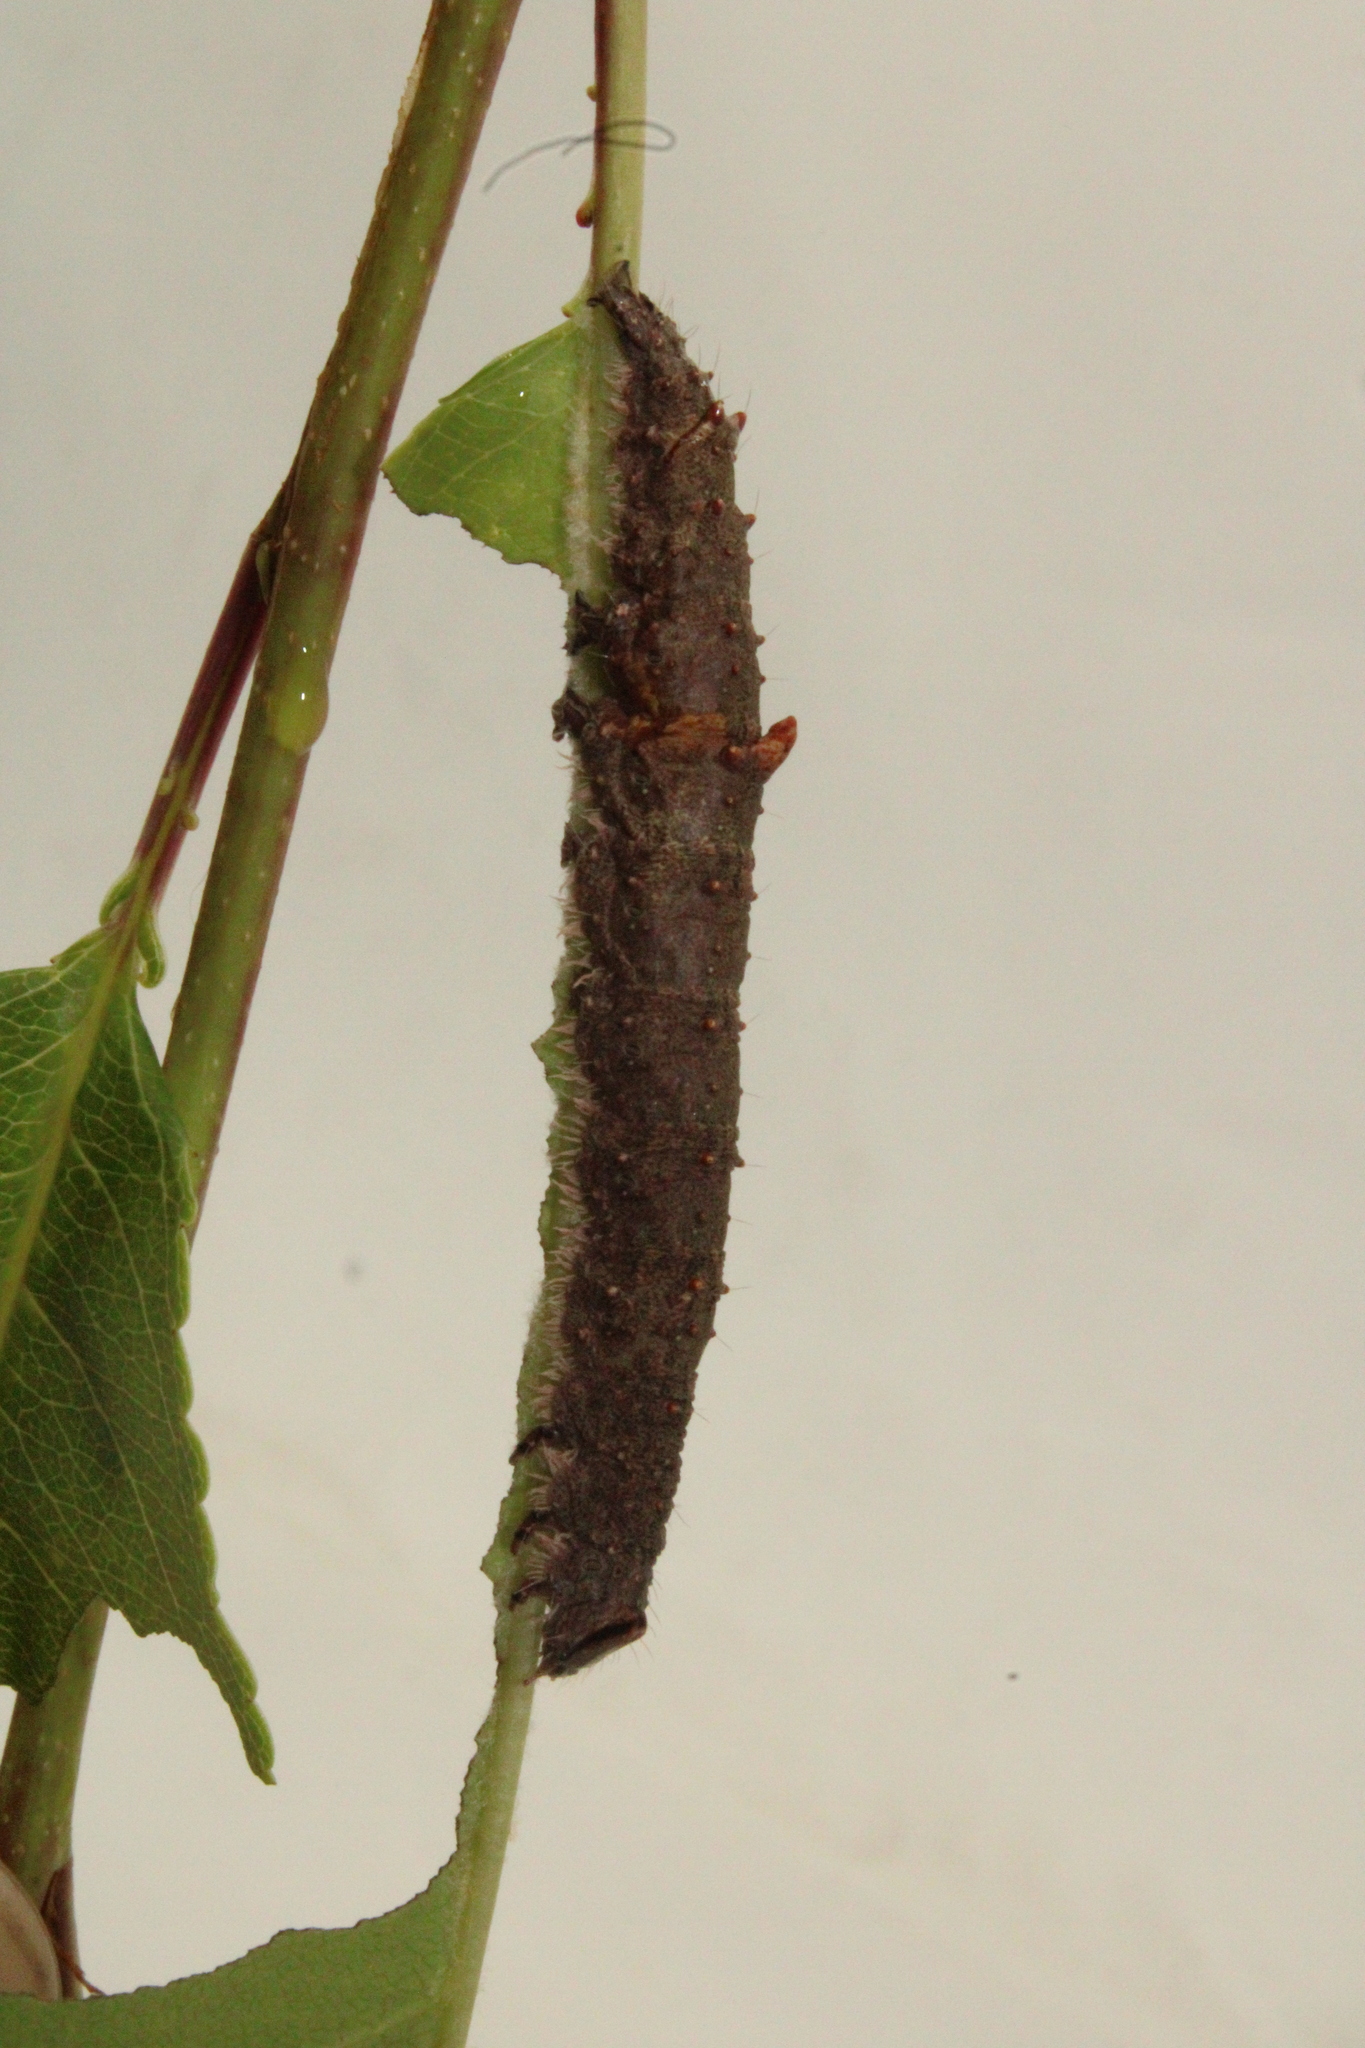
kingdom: Animalia
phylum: Arthropoda
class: Insecta
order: Lepidoptera
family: Erebidae
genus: Catocala
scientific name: Catocala ultronia
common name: Ultronia underwing
